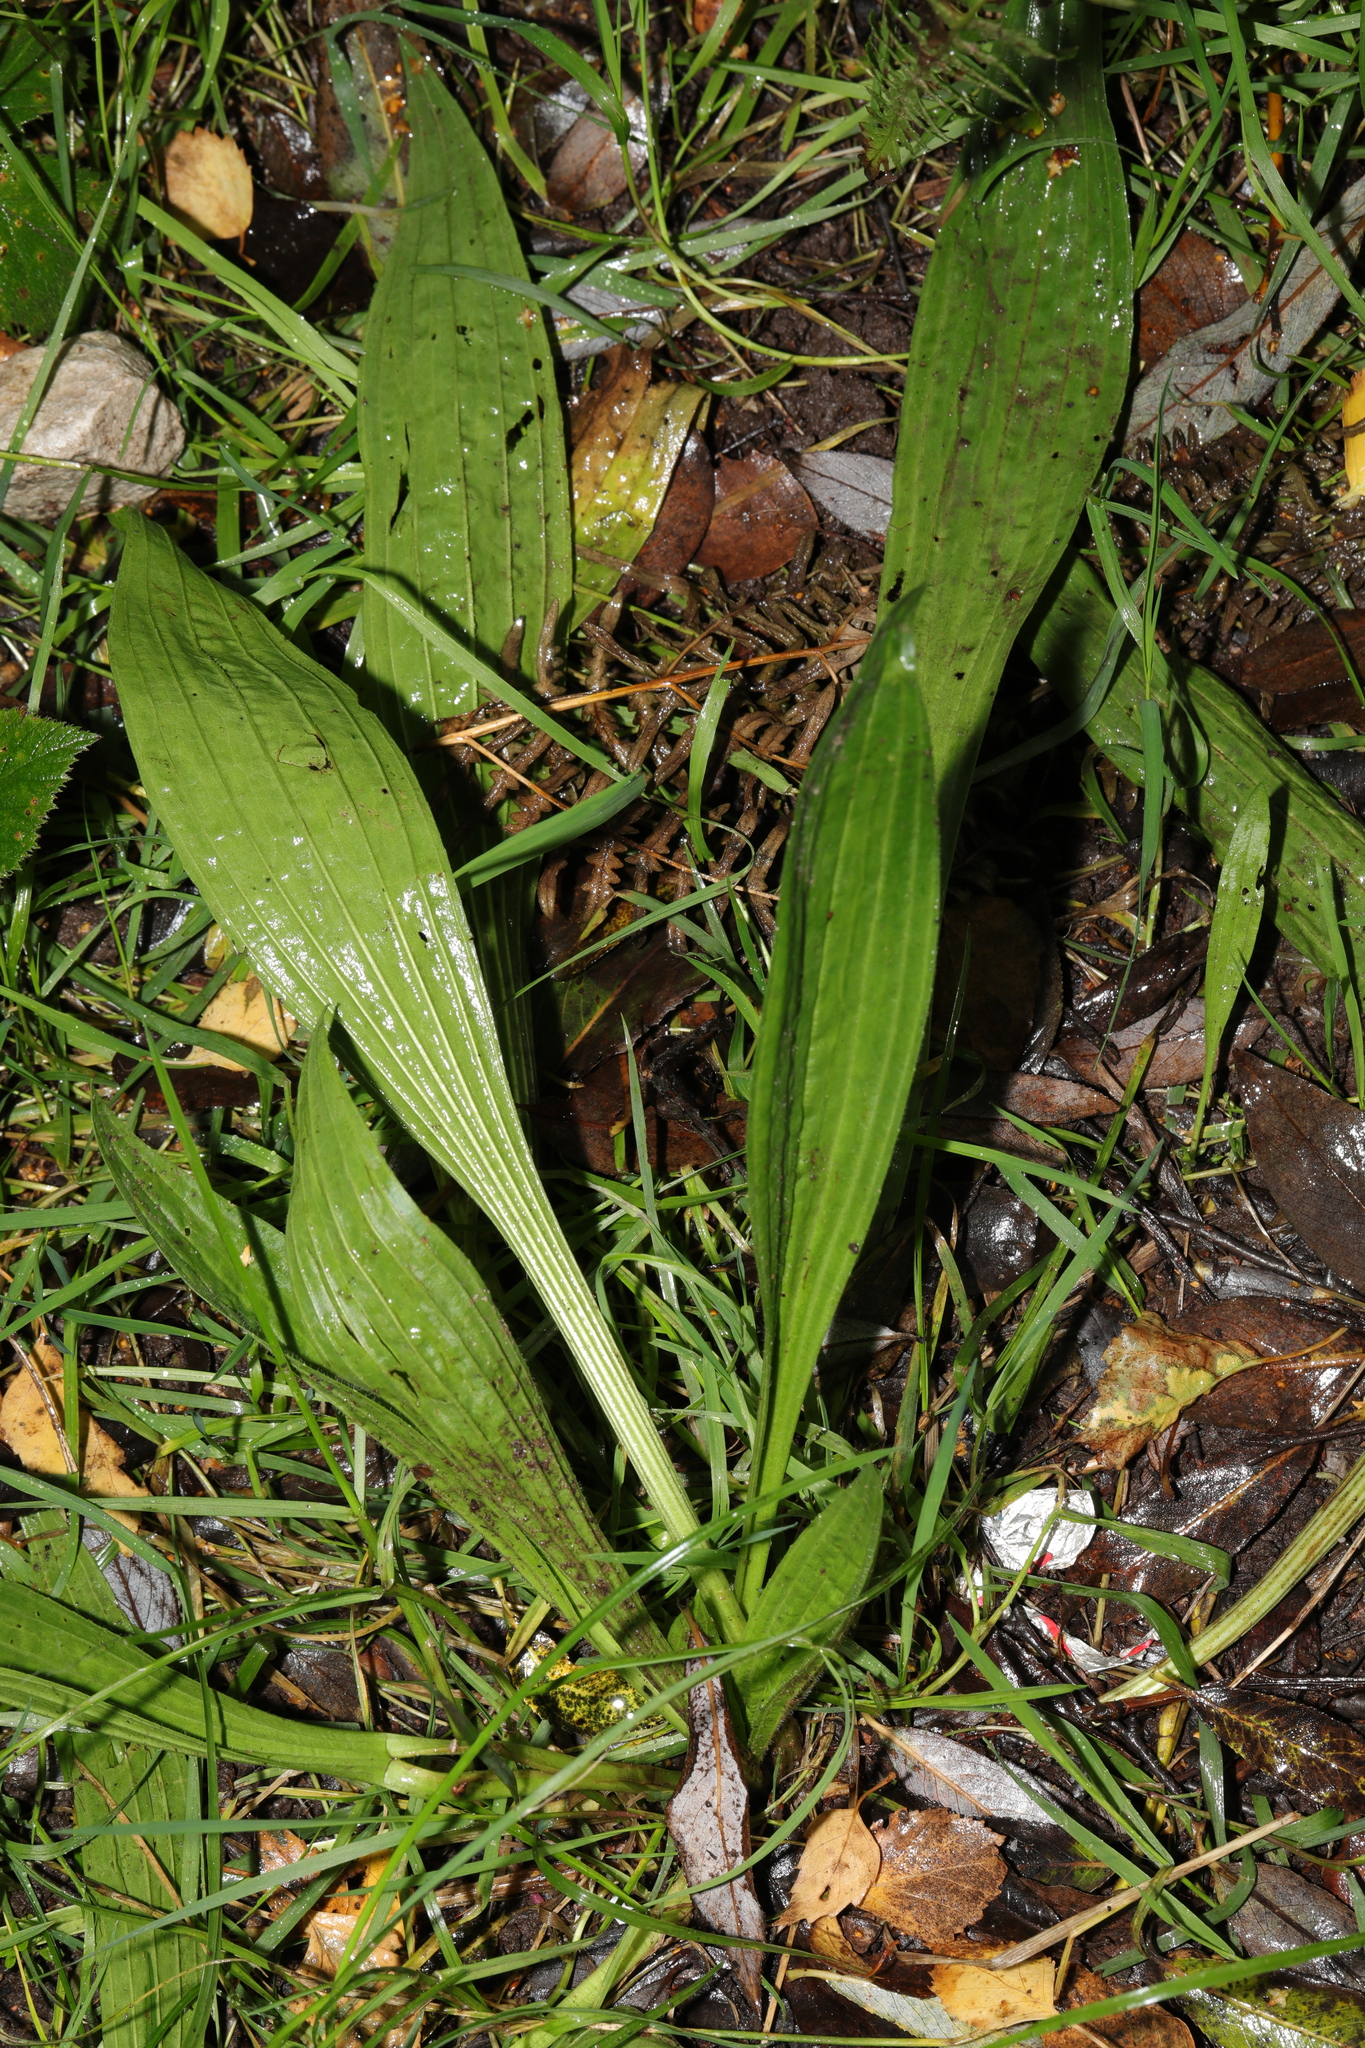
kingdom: Plantae
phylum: Tracheophyta
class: Magnoliopsida
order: Lamiales
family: Plantaginaceae
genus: Plantago
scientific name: Plantago lanceolata
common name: Ribwort plantain
